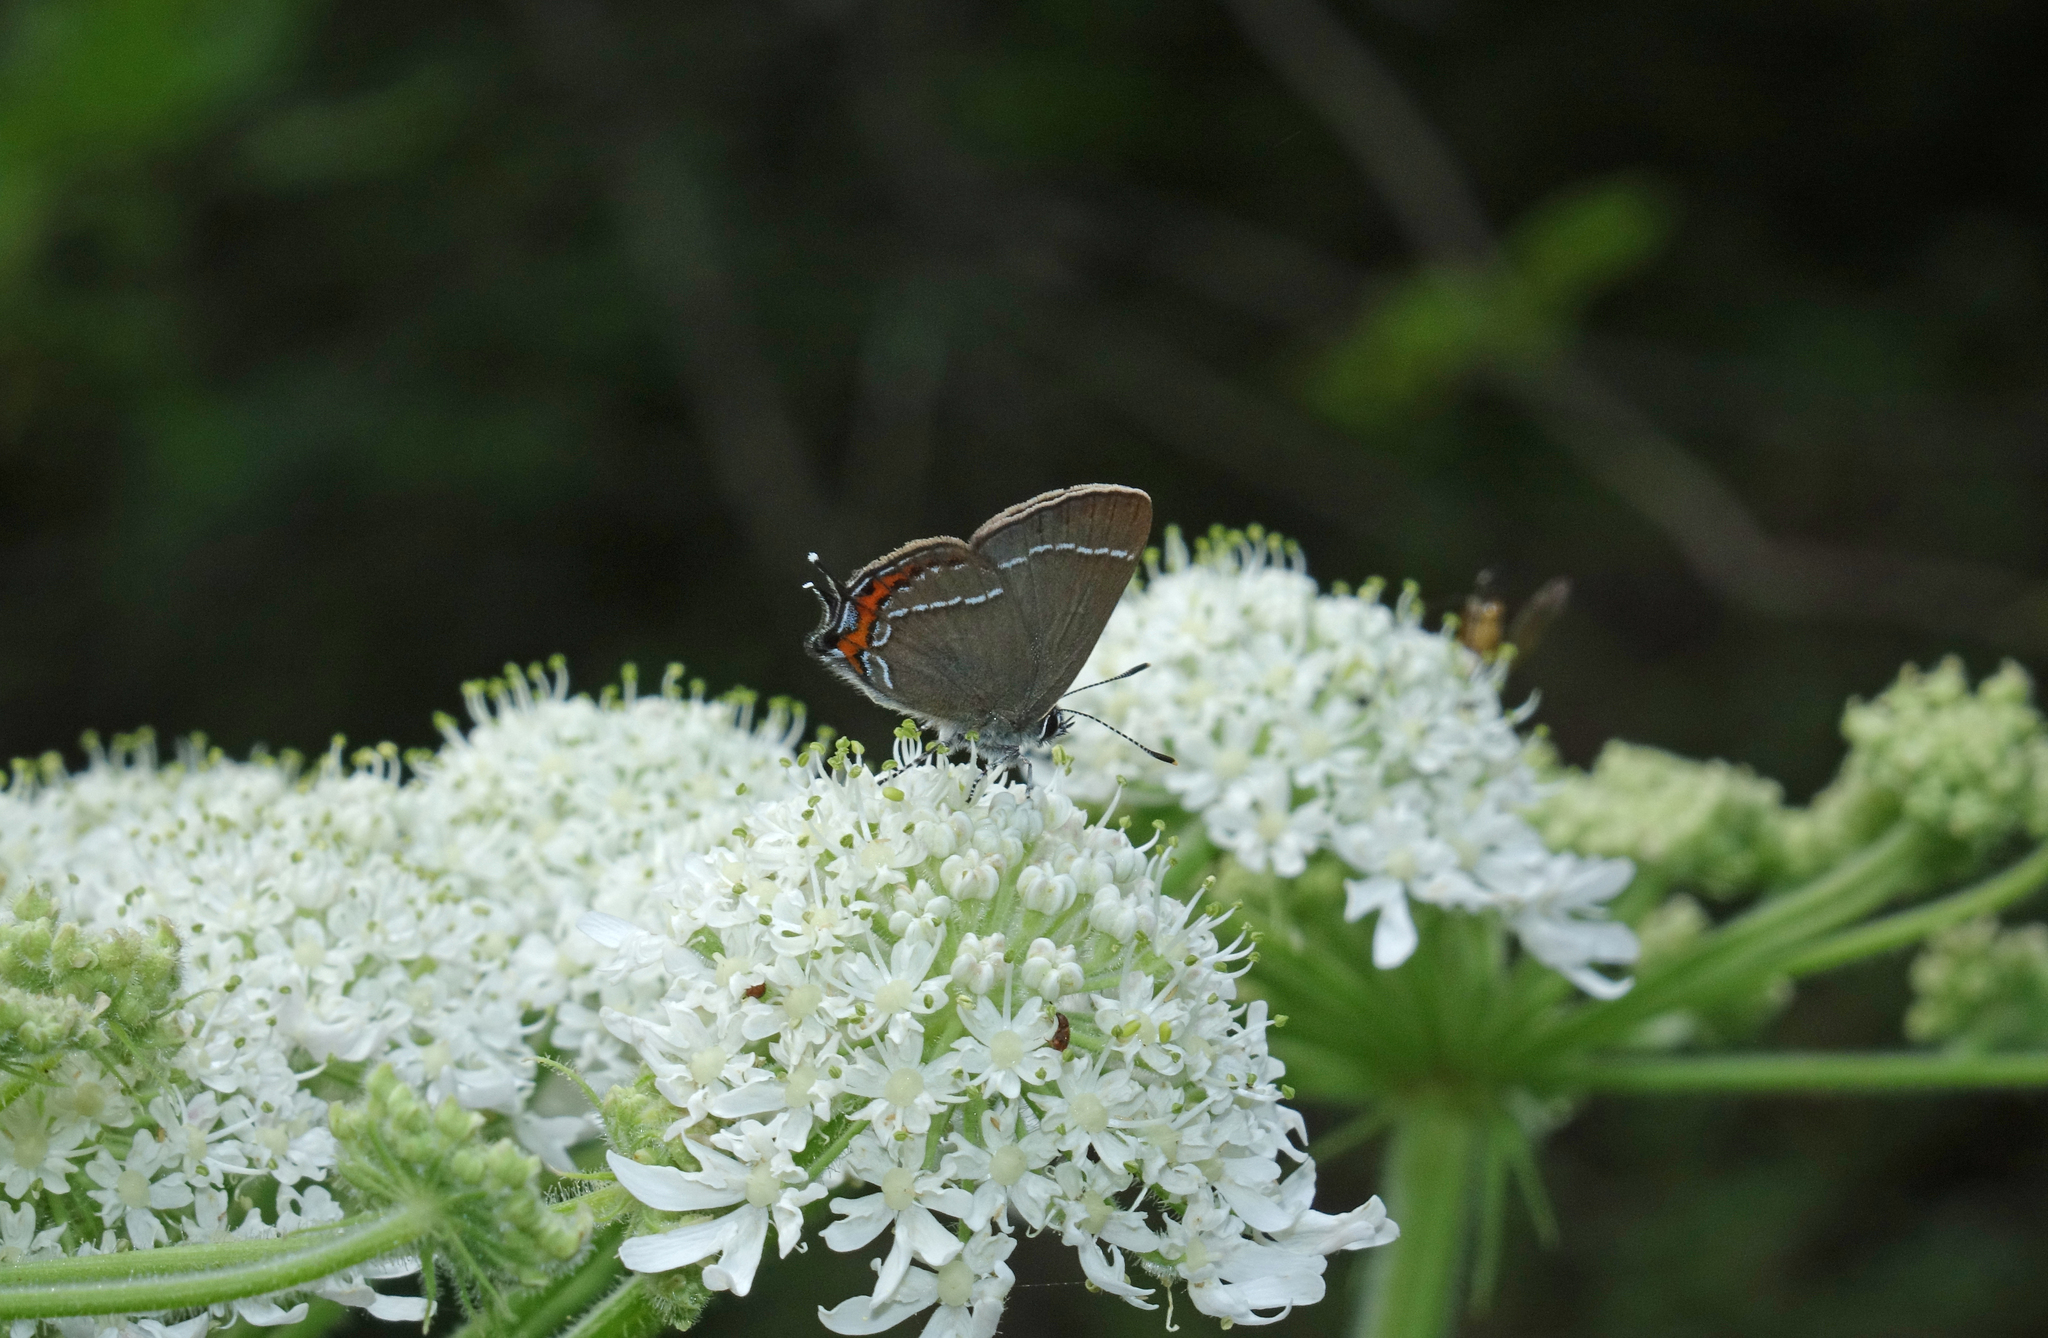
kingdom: Animalia
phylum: Arthropoda
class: Insecta
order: Lepidoptera
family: Lycaenidae
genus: Satyrium
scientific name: Satyrium prunoides
